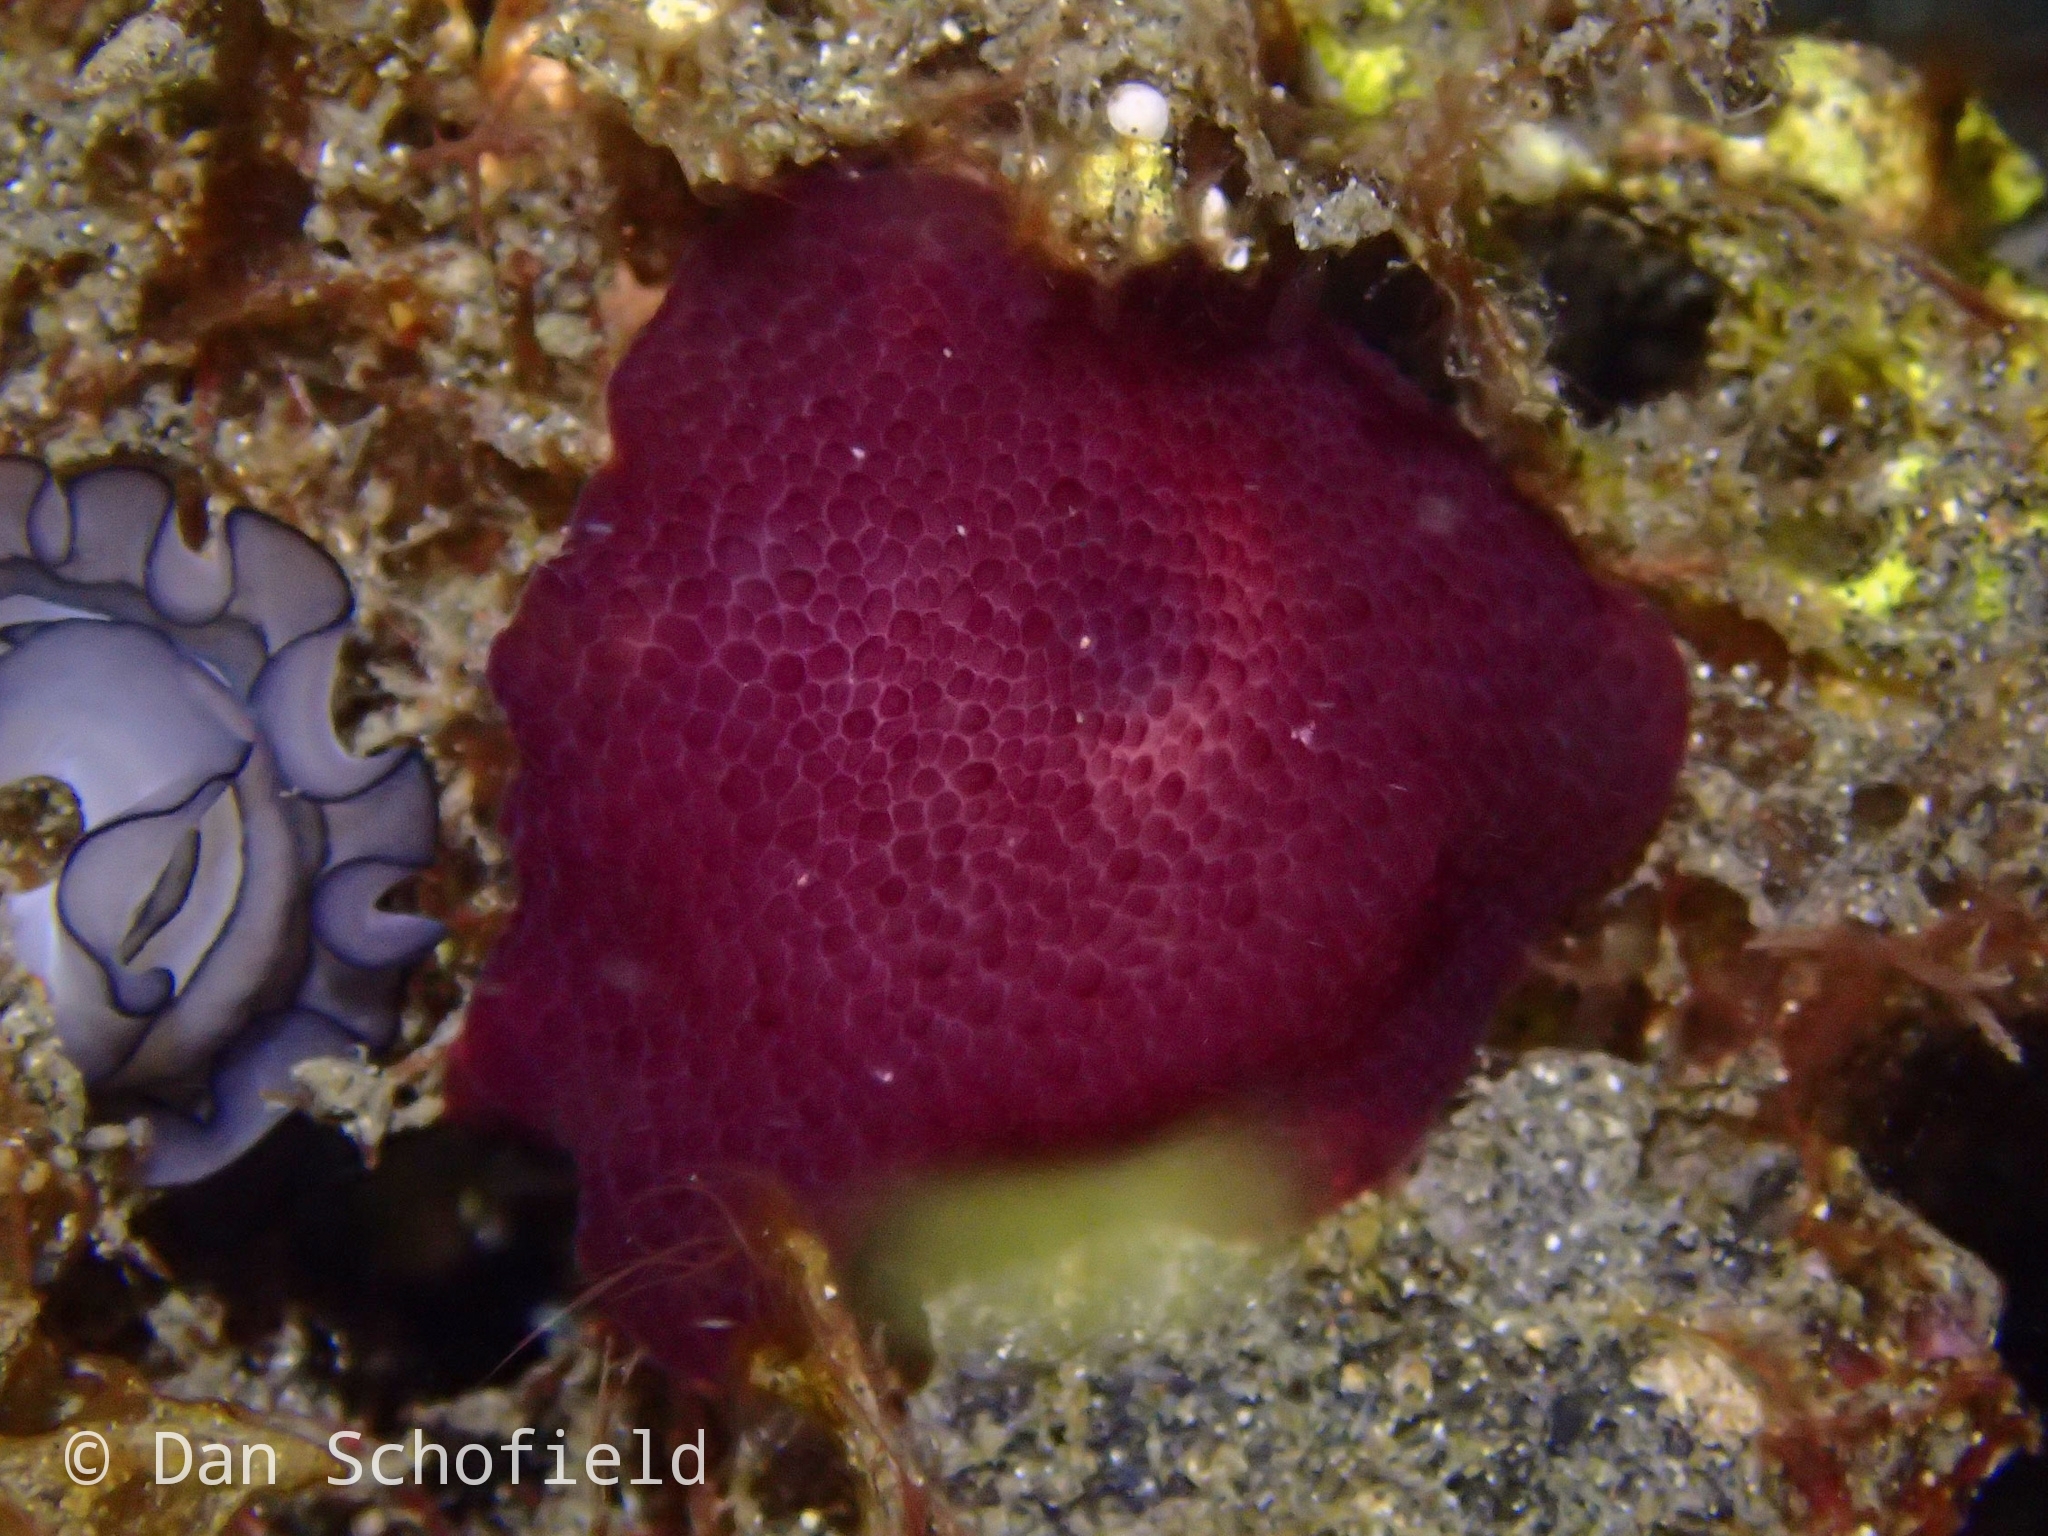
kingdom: Animalia
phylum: Mollusca
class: Gastropoda
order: Pleurobranchida
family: Pleurobranchidae
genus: Pleurobranchus
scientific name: Pleurobranchus peronii
